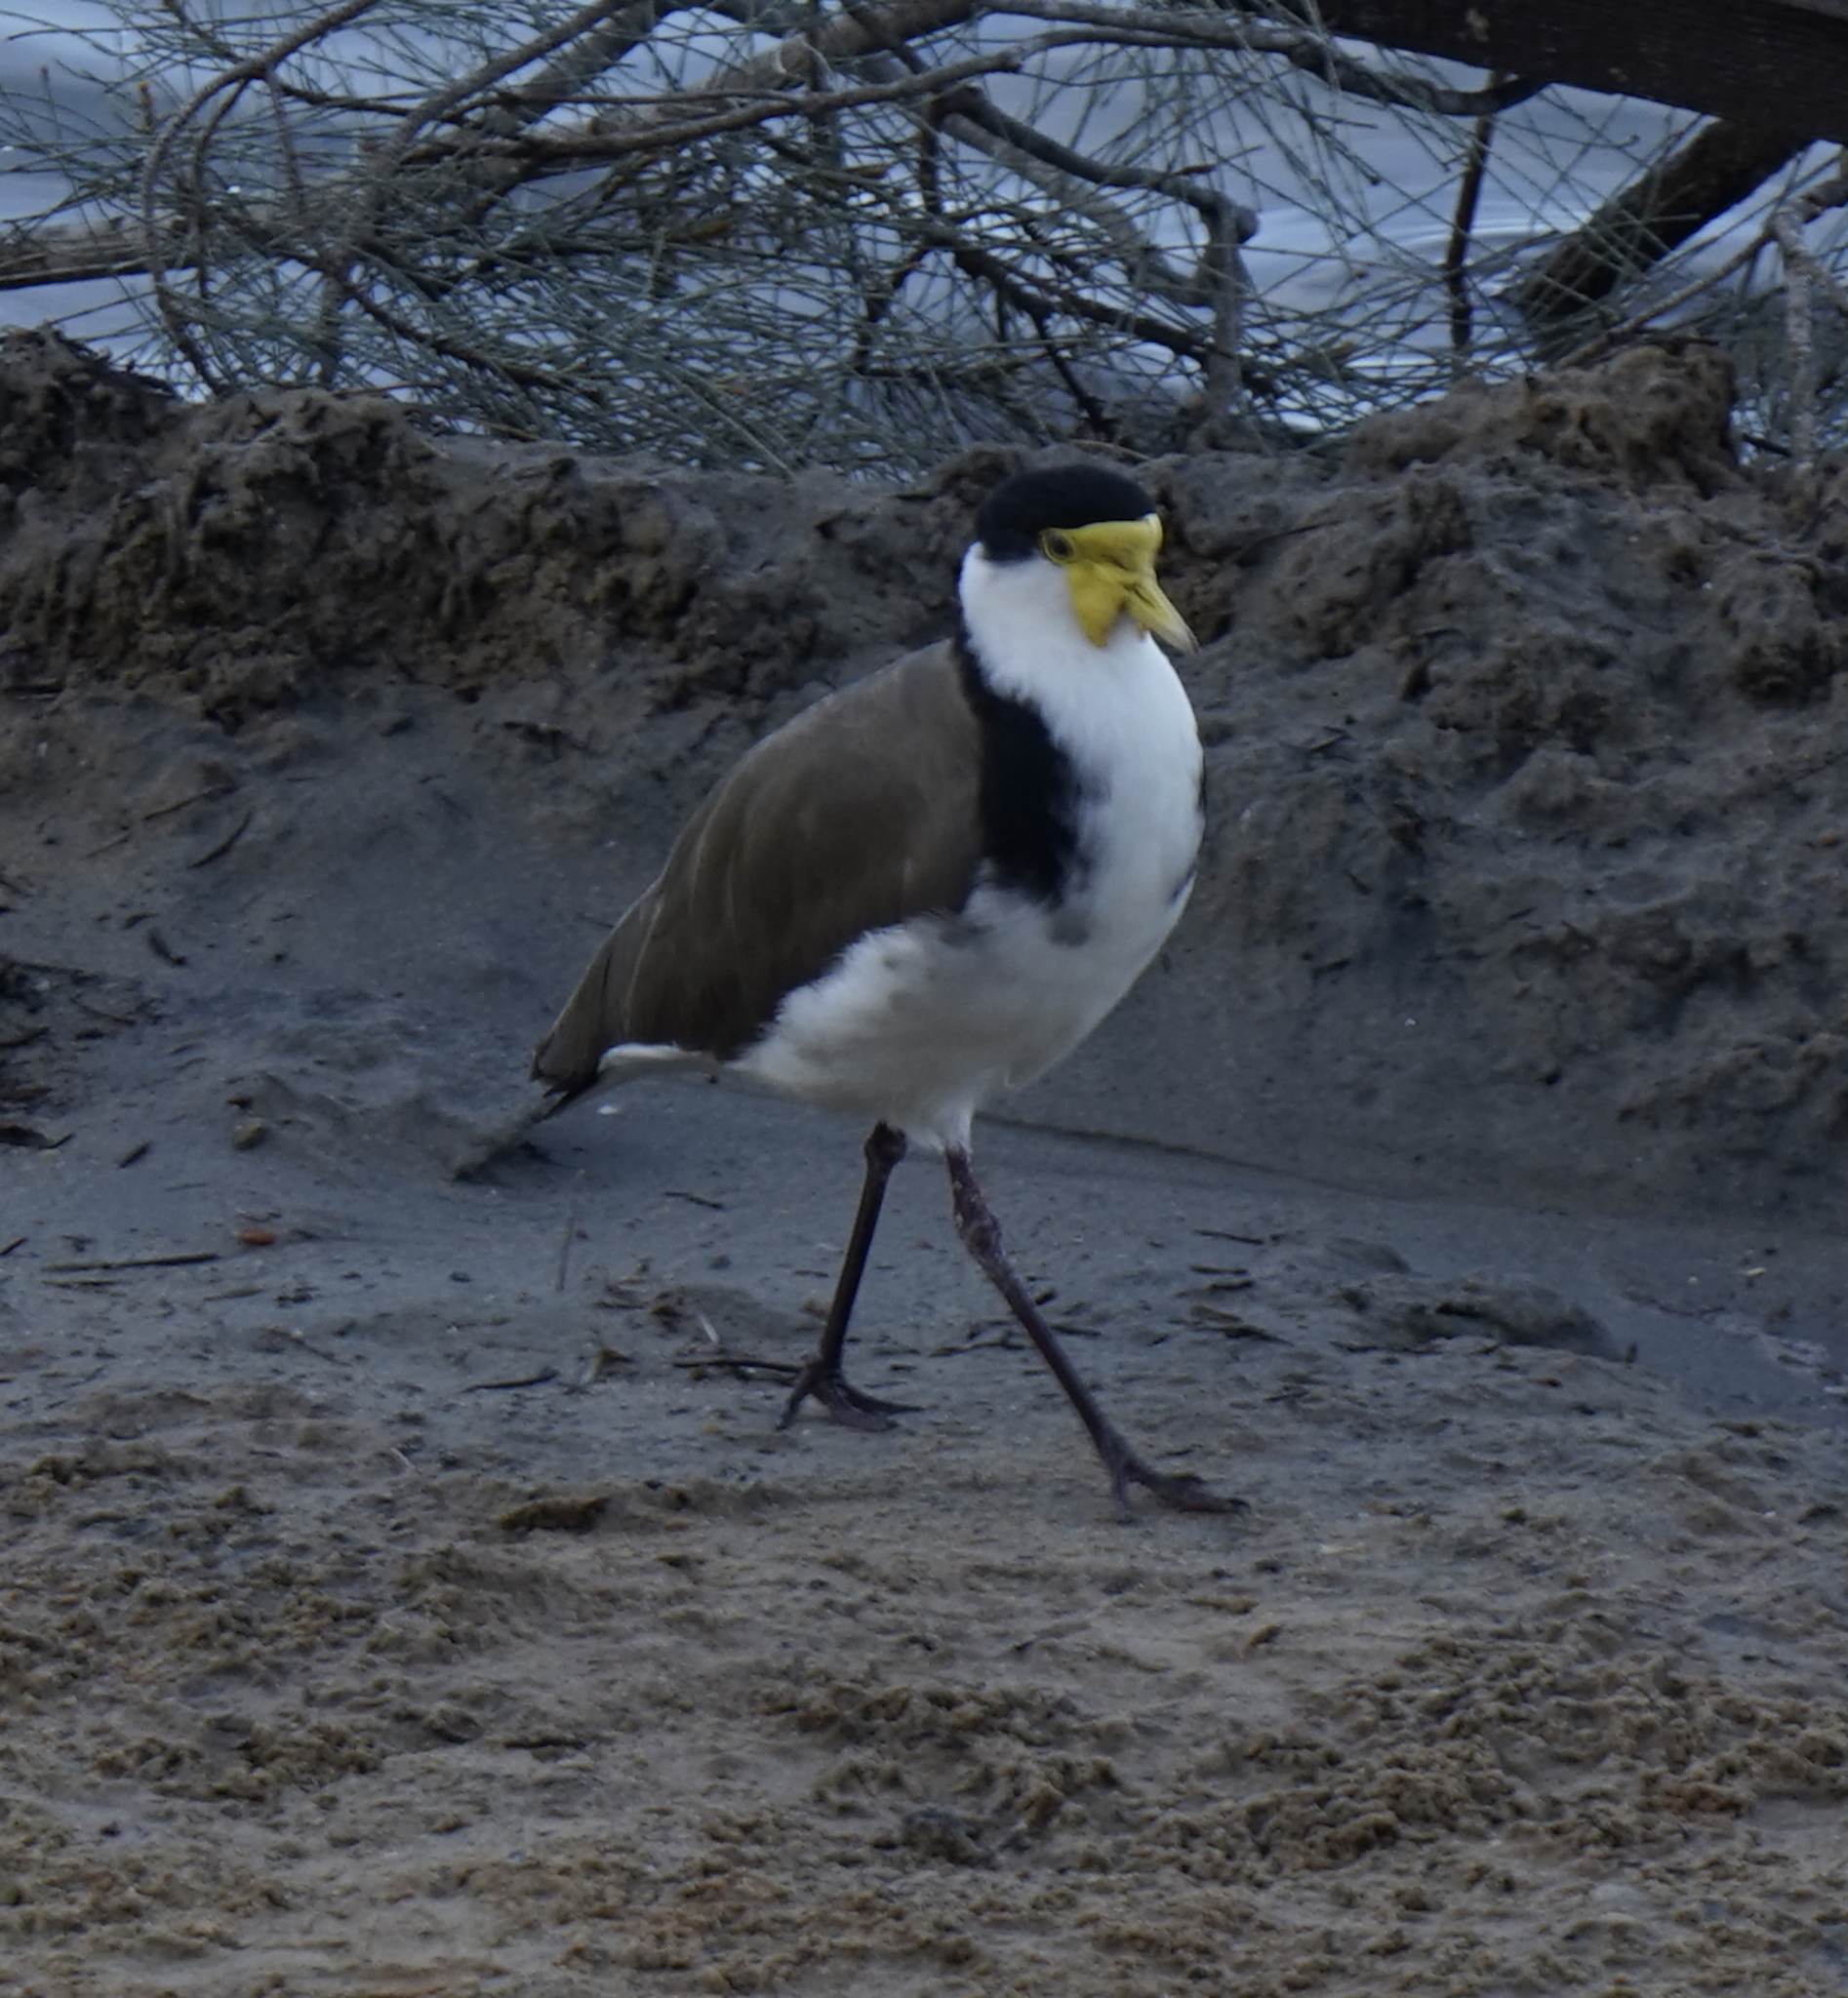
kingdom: Animalia
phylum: Chordata
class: Aves
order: Charadriiformes
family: Charadriidae
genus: Vanellus
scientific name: Vanellus miles
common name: Masked lapwing
